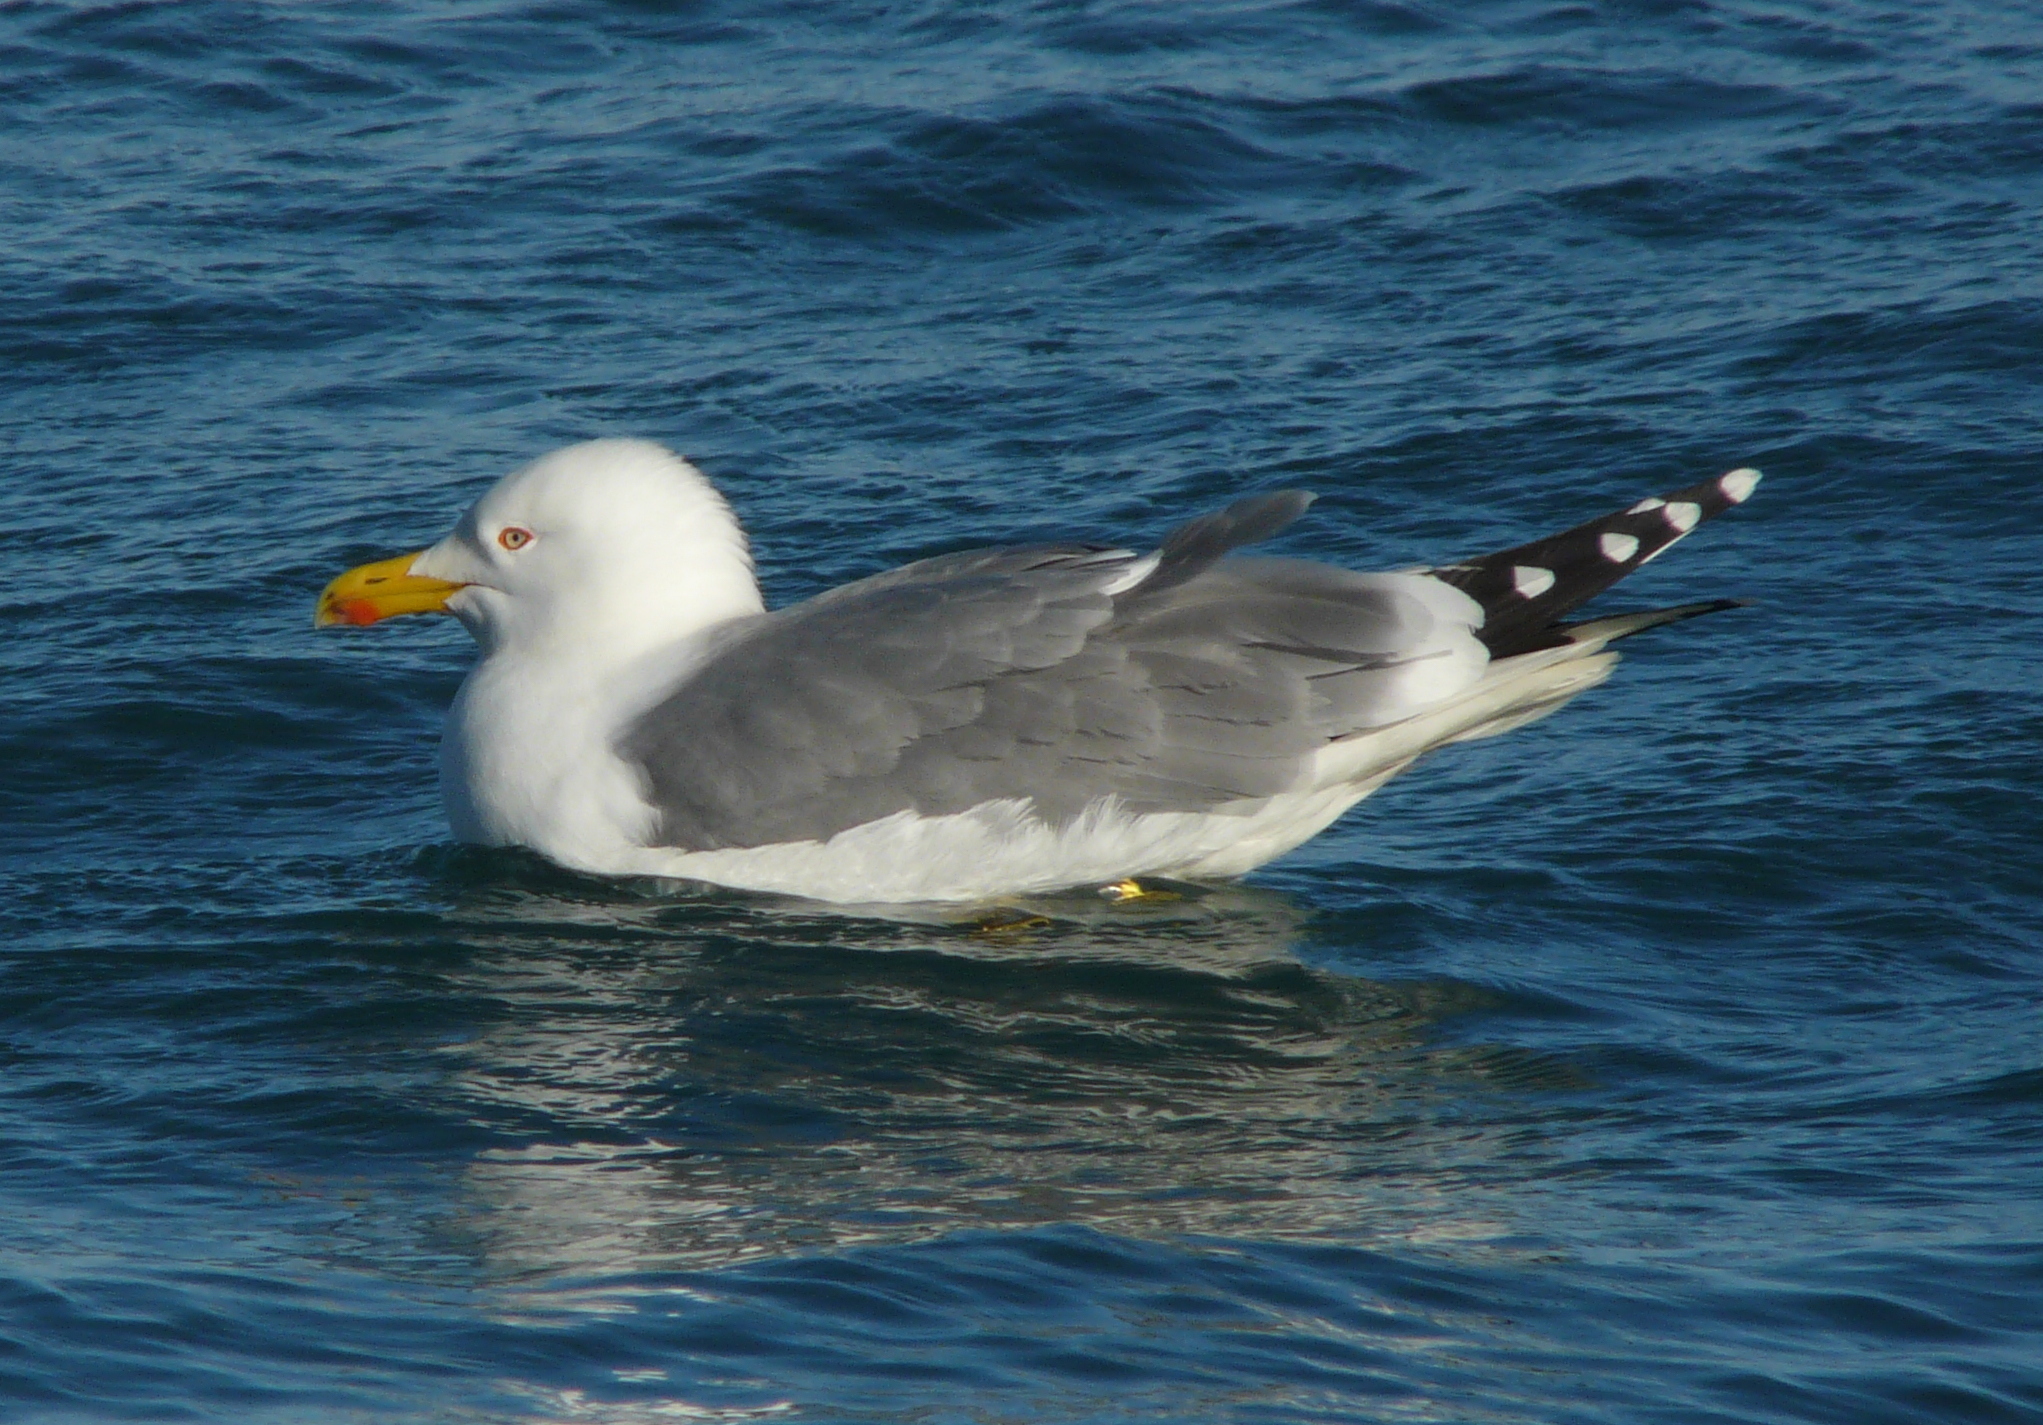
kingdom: Animalia
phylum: Chordata
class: Aves
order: Charadriiformes
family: Laridae
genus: Larus
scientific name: Larus michahellis
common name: Yellow-legged gull
